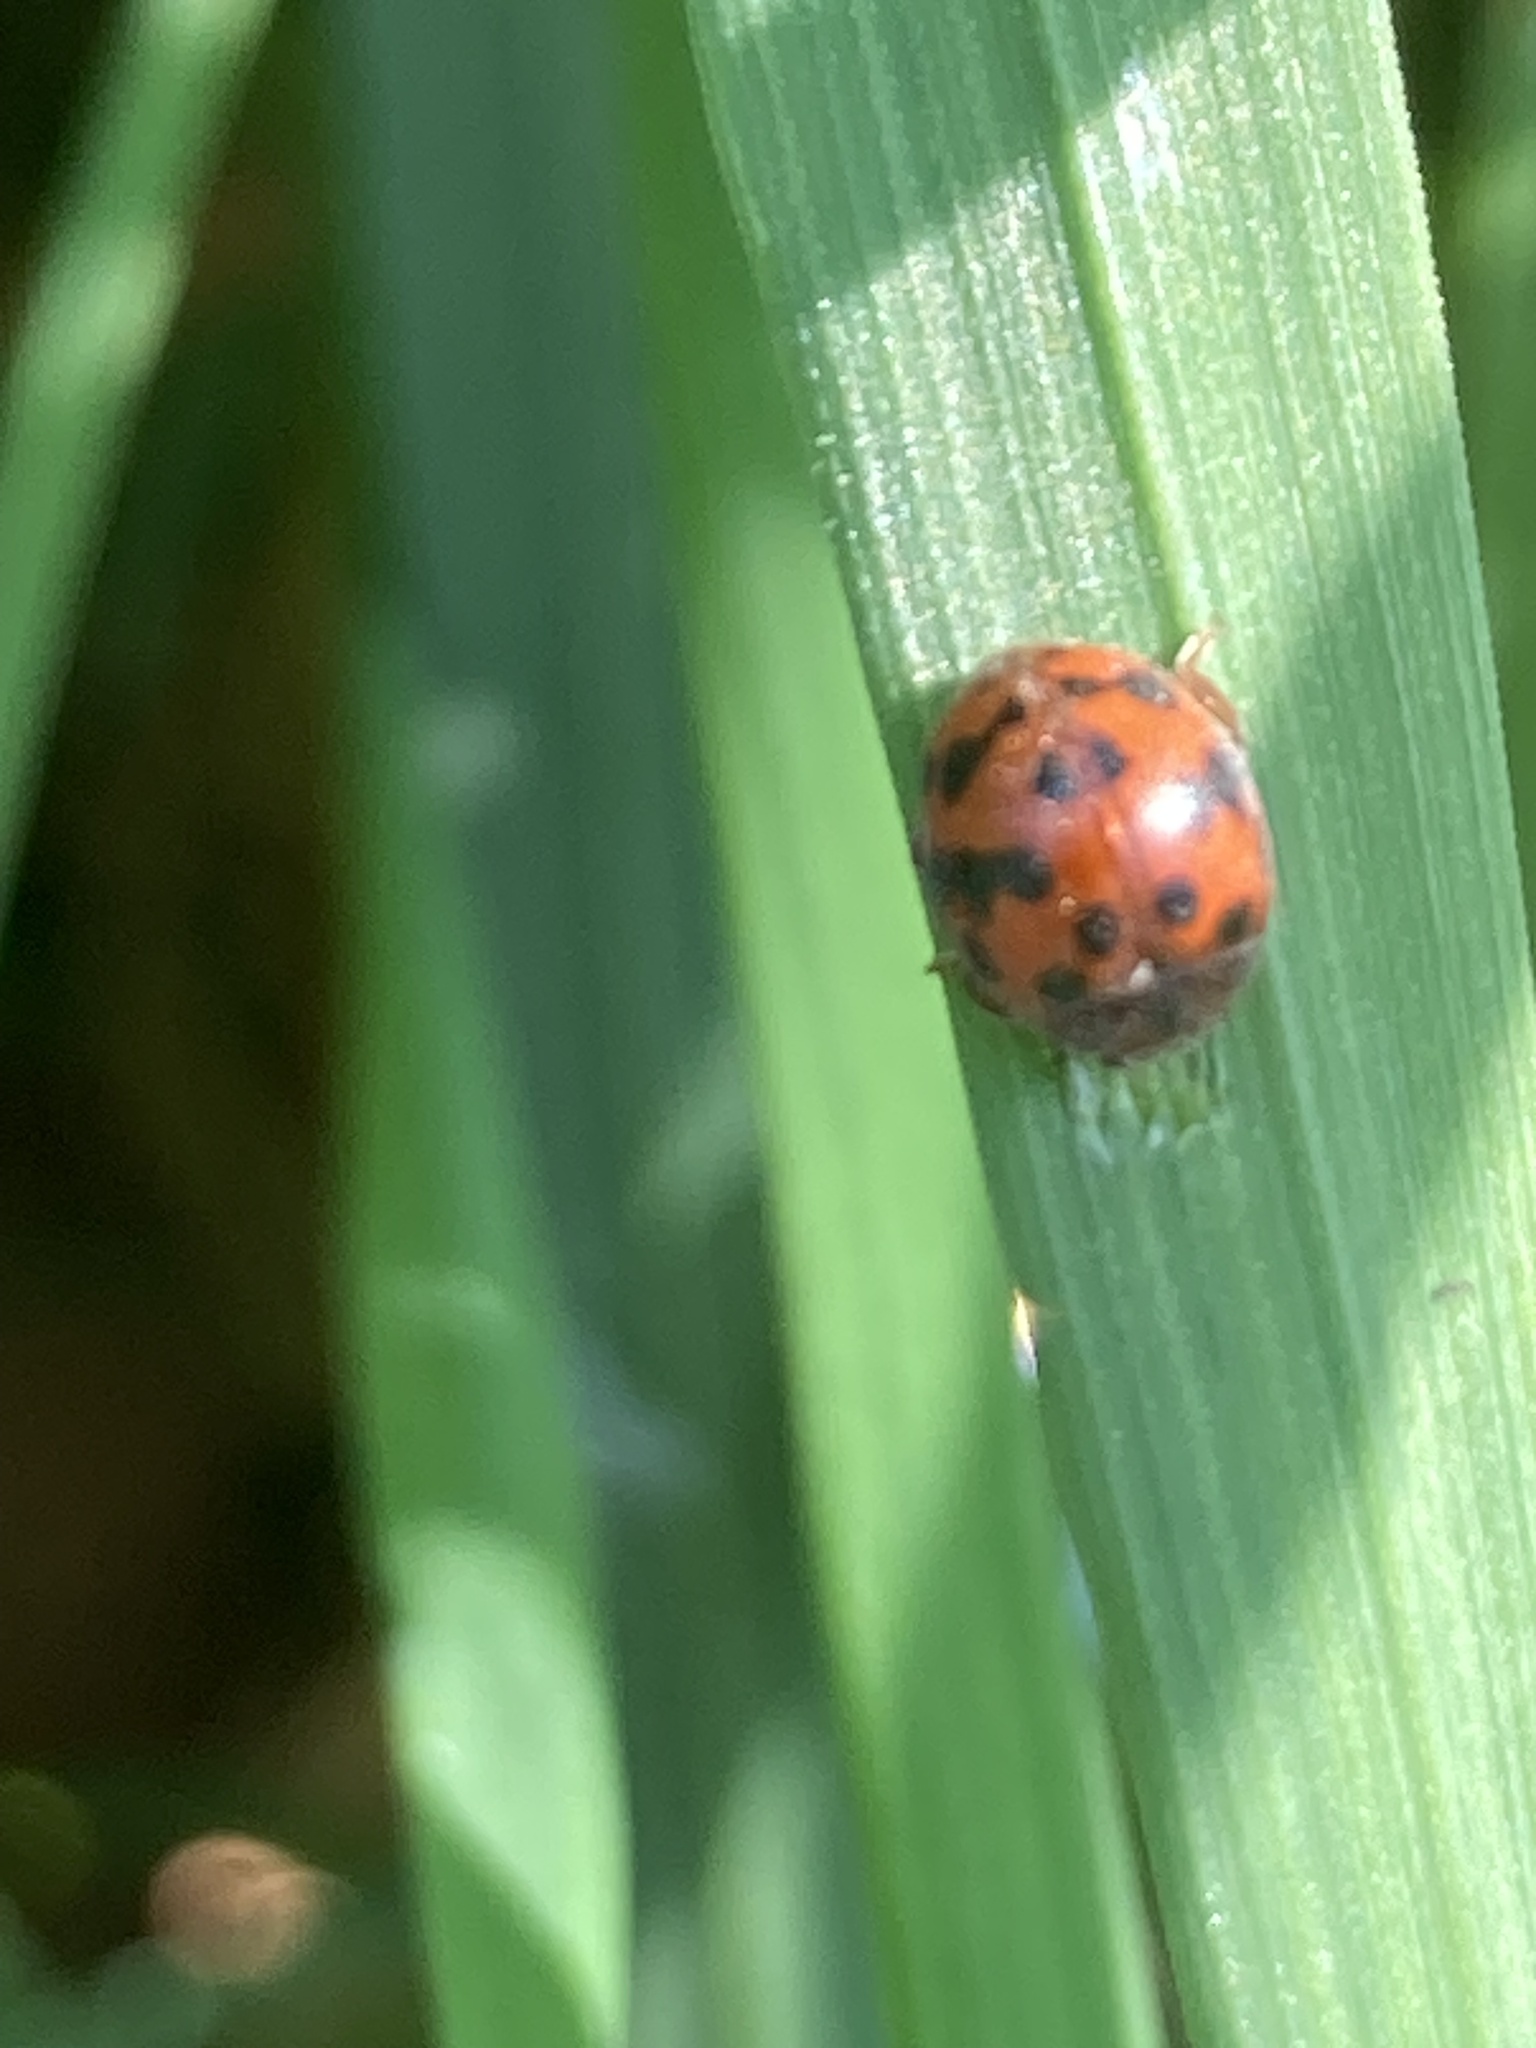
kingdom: Animalia
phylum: Arthropoda
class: Insecta
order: Coleoptera
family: Coccinellidae
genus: Subcoccinella
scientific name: Subcoccinella vigintiquatuorpunctata
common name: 24-spot ladybird
